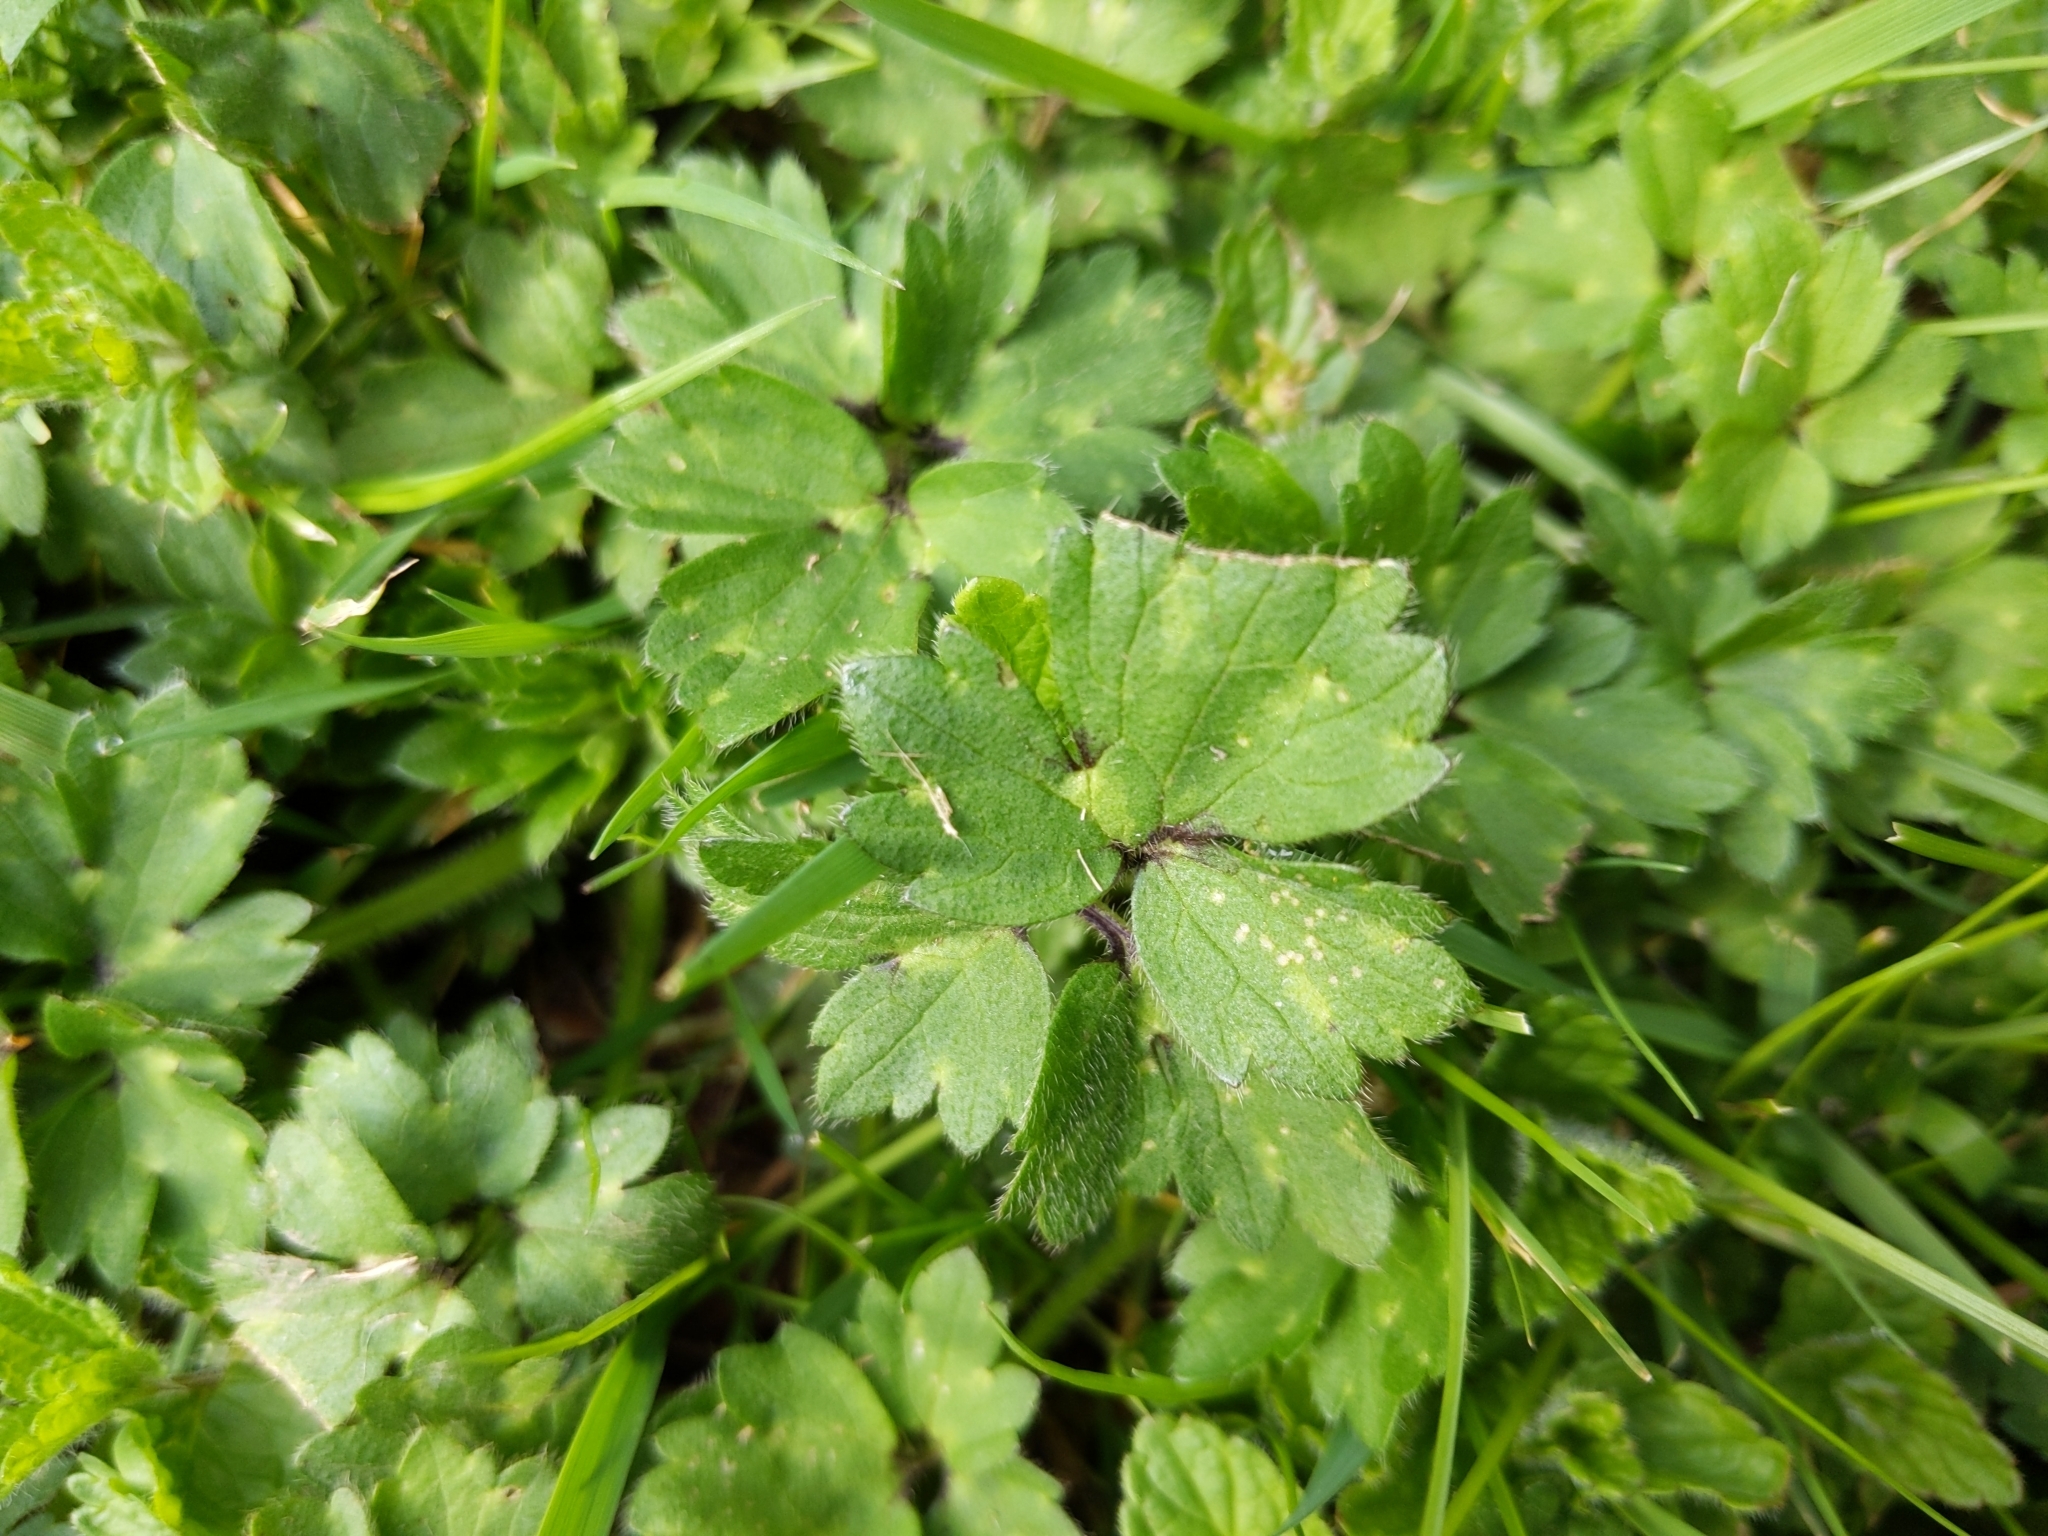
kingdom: Plantae
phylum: Tracheophyta
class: Magnoliopsida
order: Ranunculales
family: Ranunculaceae
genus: Ranunculus
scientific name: Ranunculus repens
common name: Creeping buttercup
